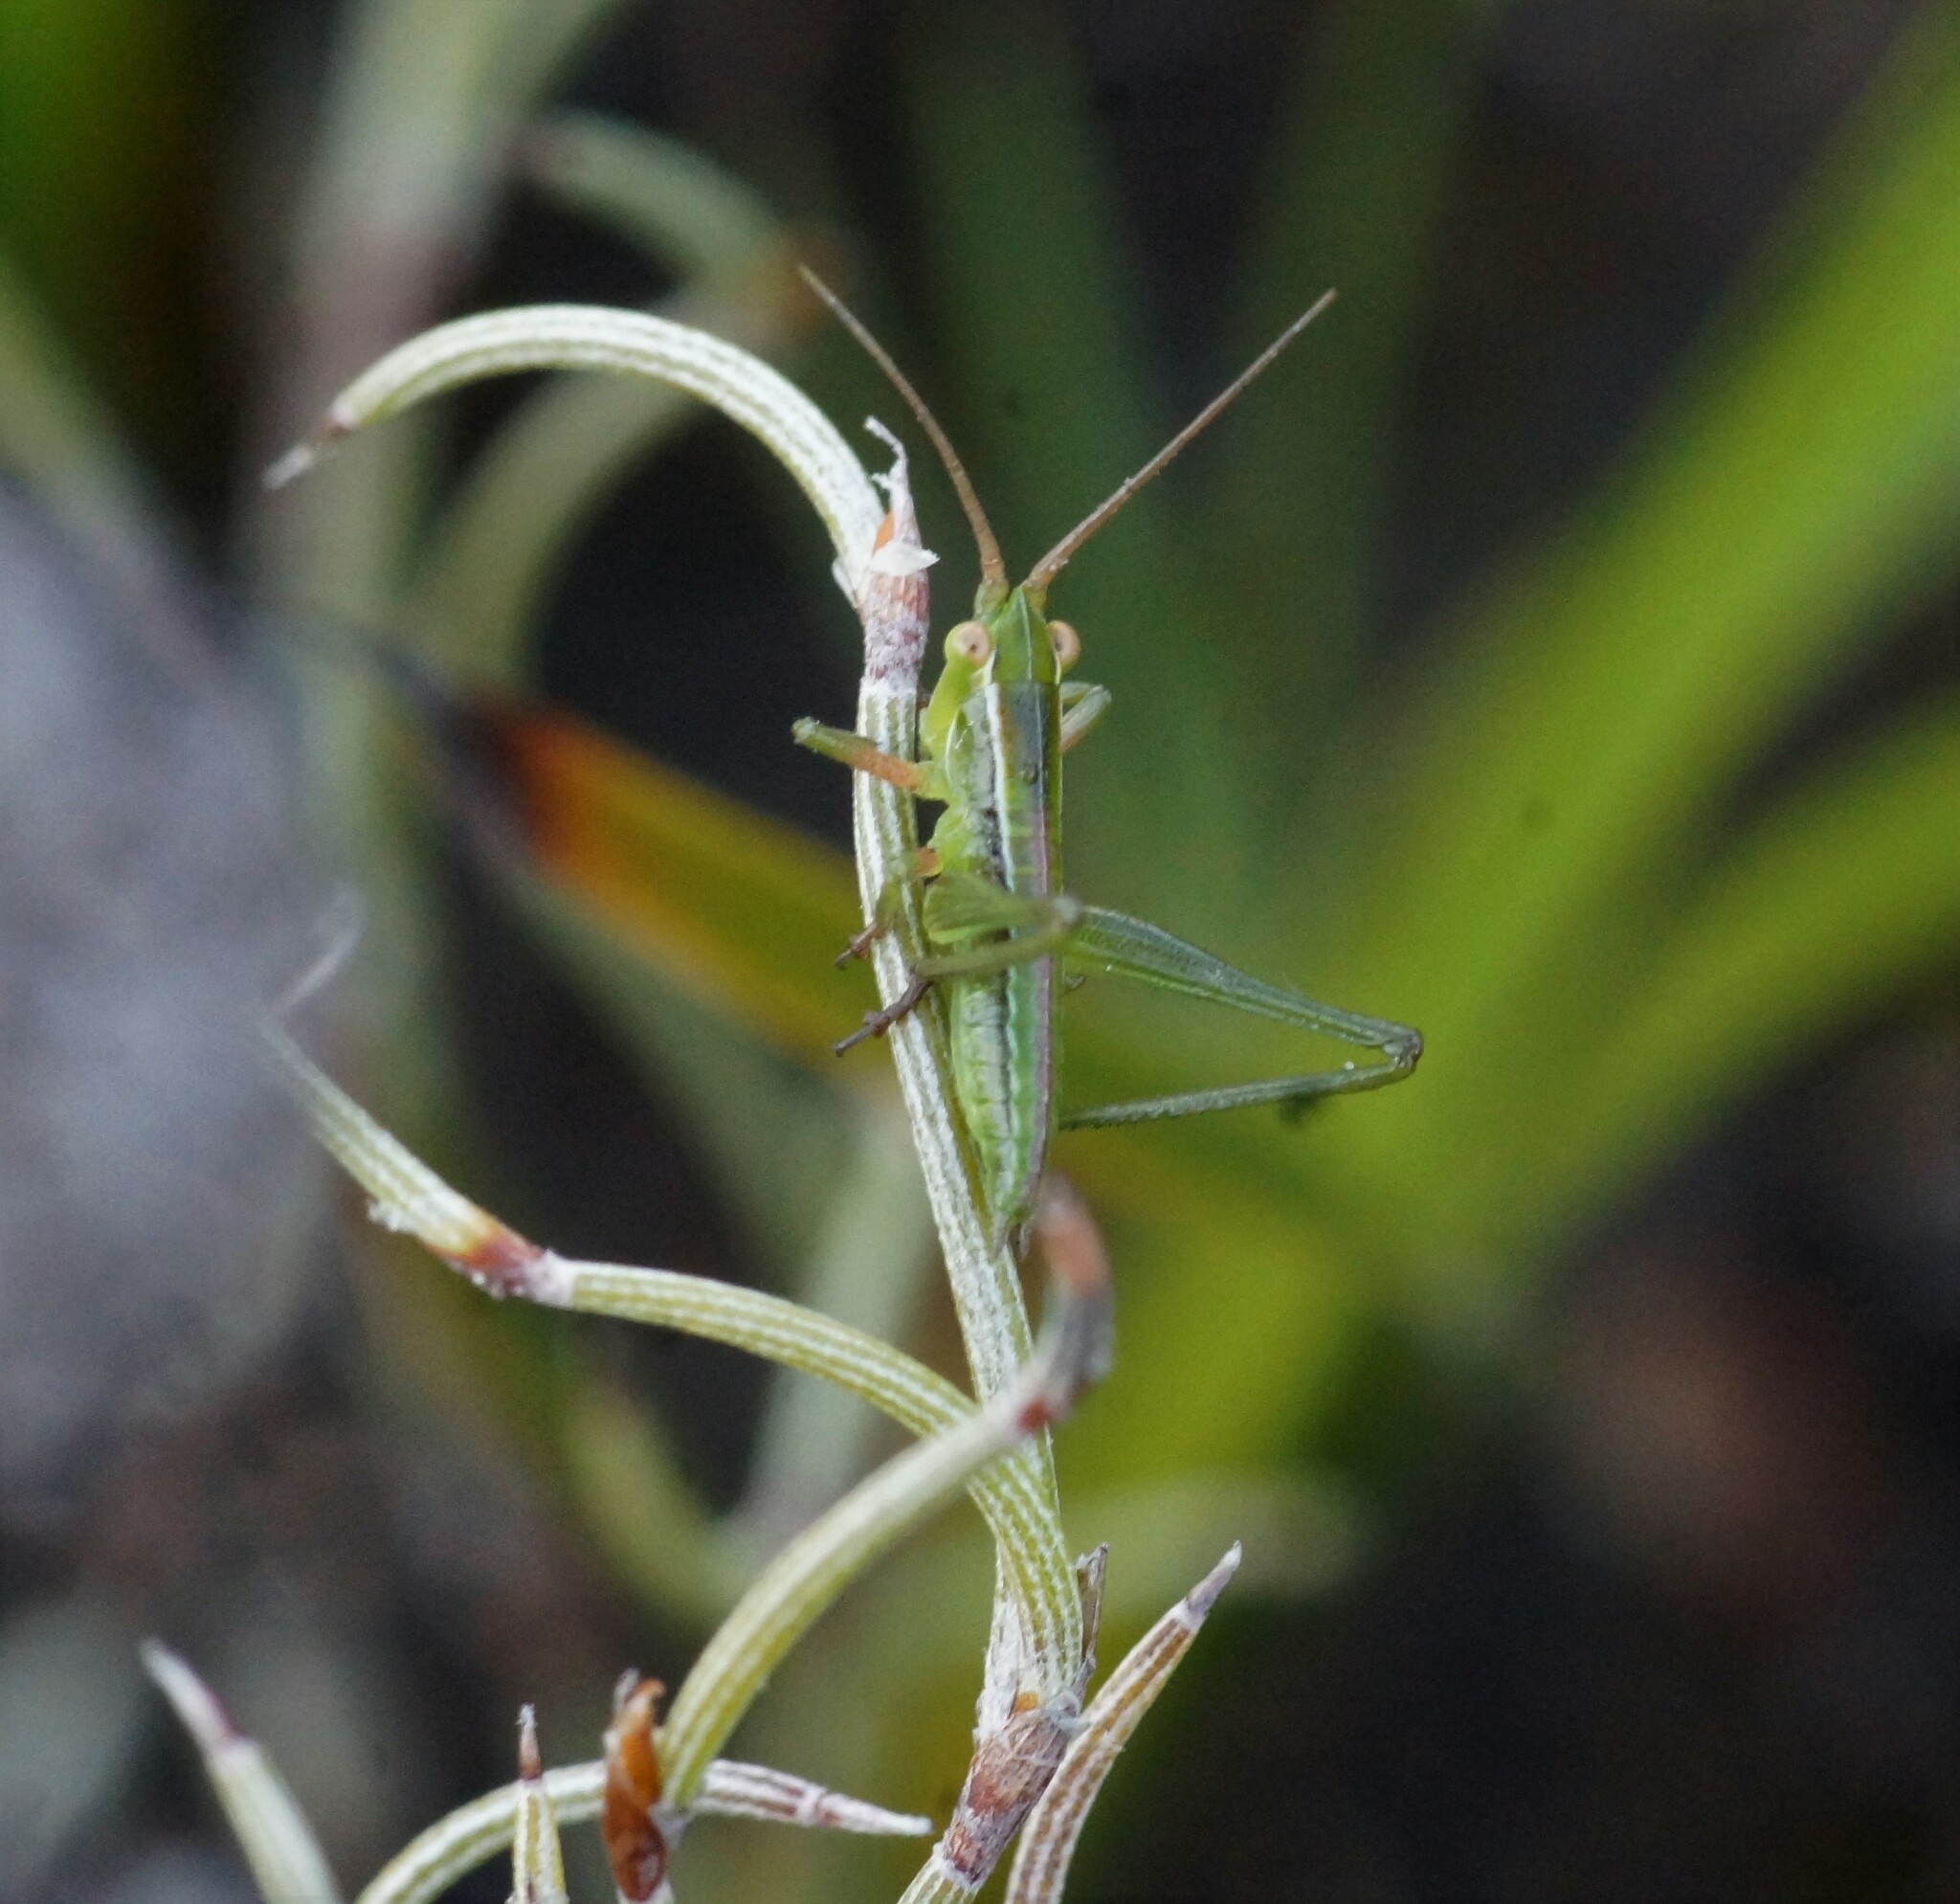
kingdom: Animalia
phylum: Arthropoda
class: Insecta
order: Orthoptera
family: Tettigoniidae
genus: Metaballus
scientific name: Metaballus sagaeformis
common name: Adelaide marauding katydid
